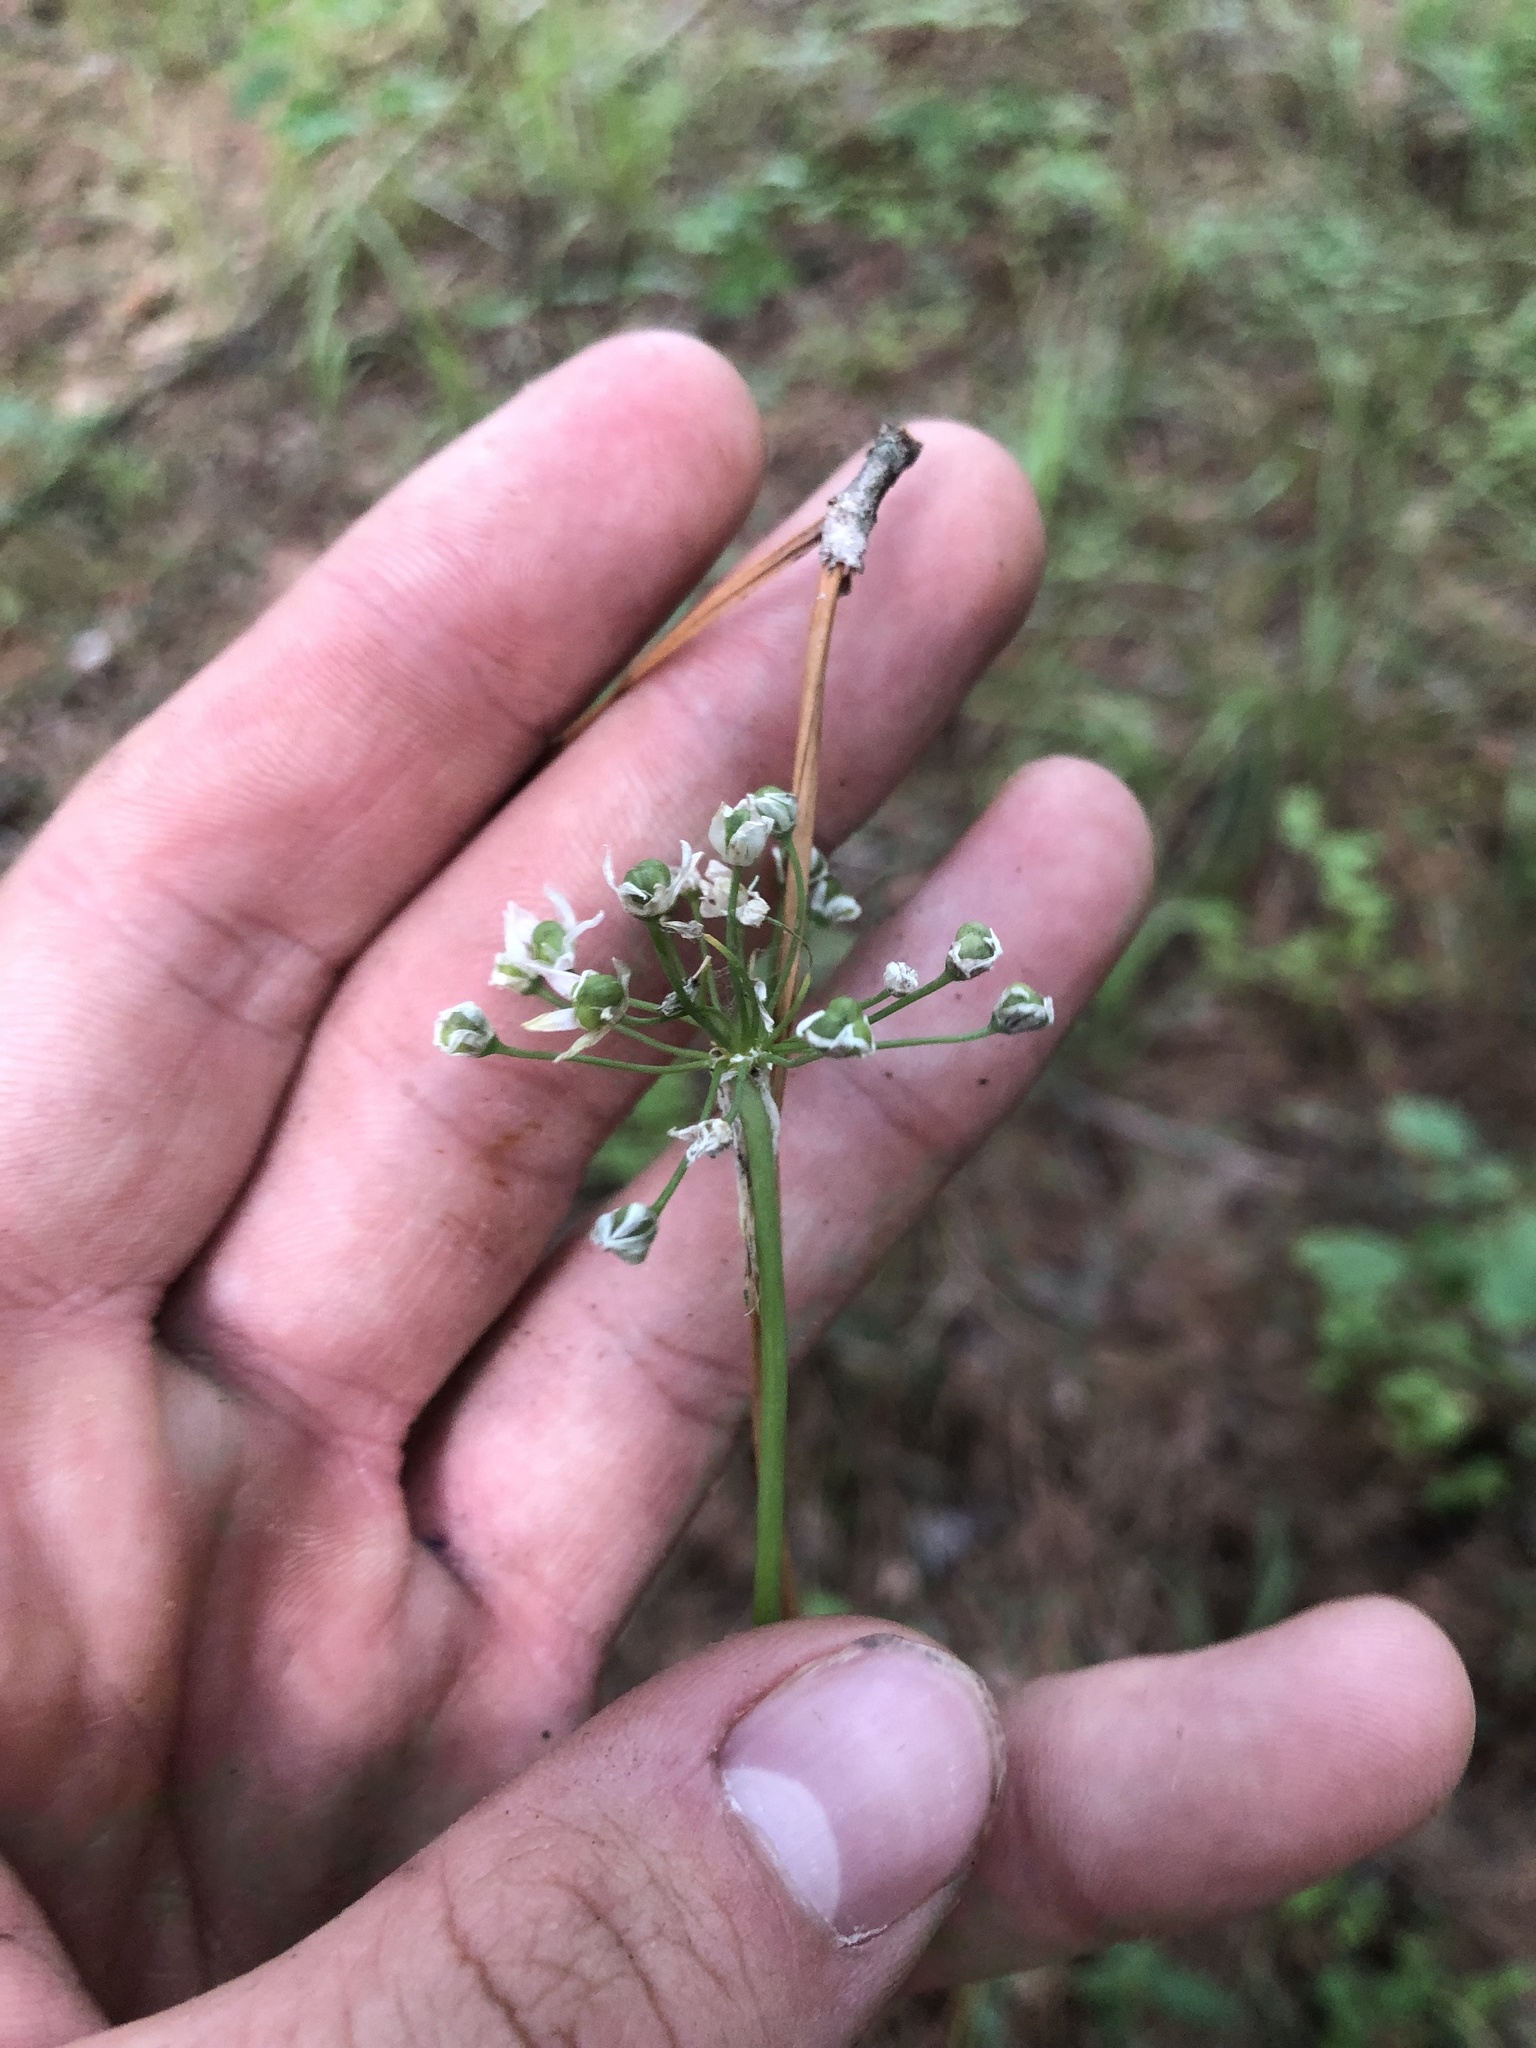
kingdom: Plantae
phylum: Tracheophyta
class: Liliopsida
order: Asparagales
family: Amaryllidaceae
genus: Allium
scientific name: Allium canadense
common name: Meadow garlic
